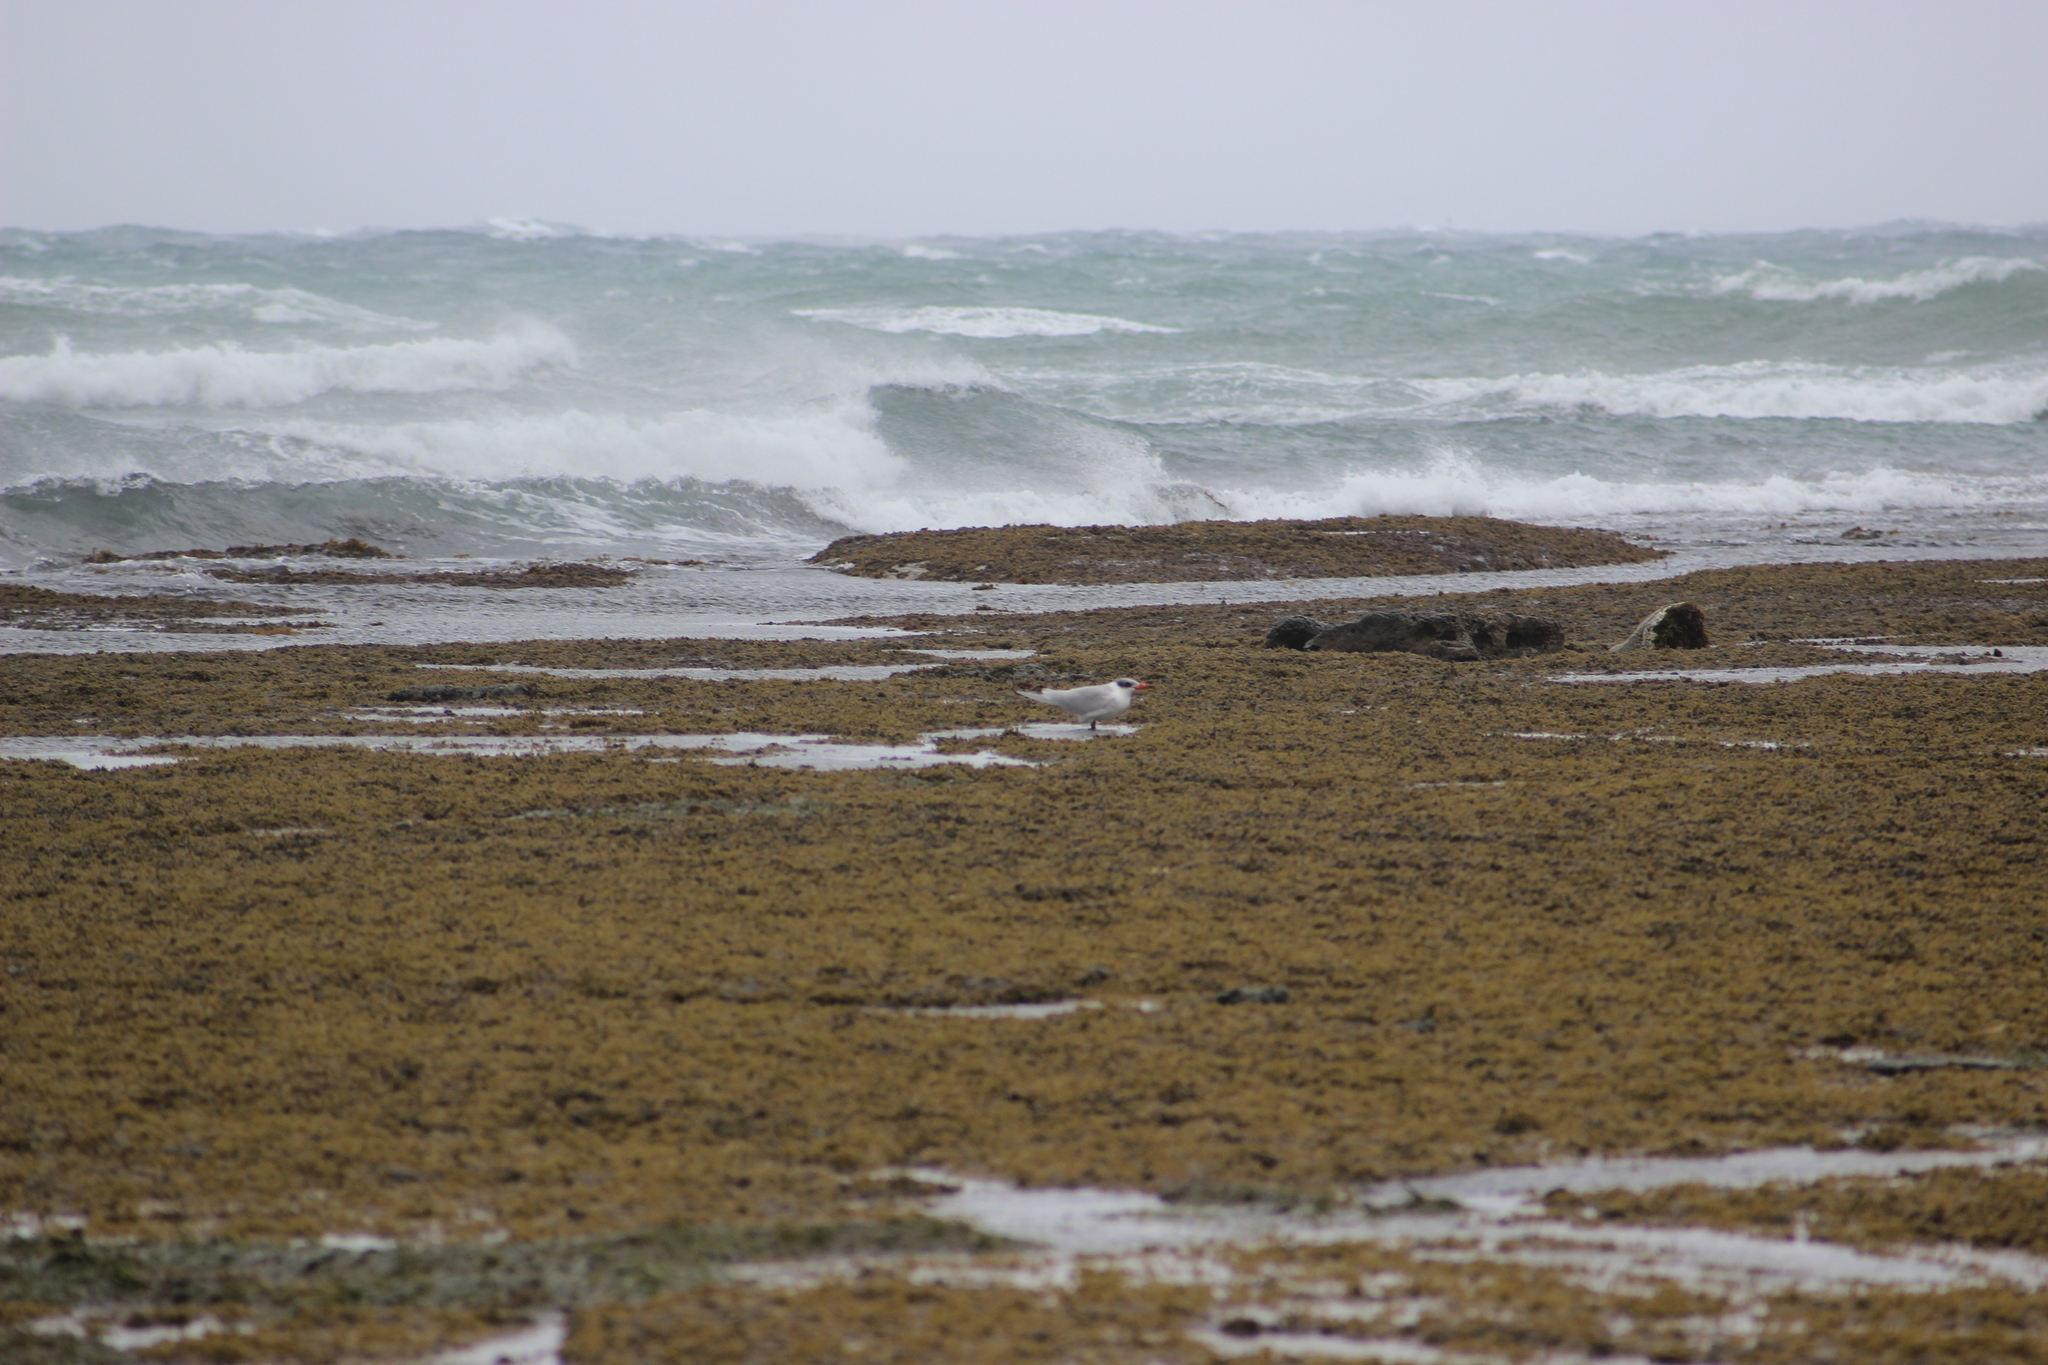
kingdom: Animalia
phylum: Chordata
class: Aves
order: Charadriiformes
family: Laridae
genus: Sterna
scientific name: Sterna striata
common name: White-fronted tern
